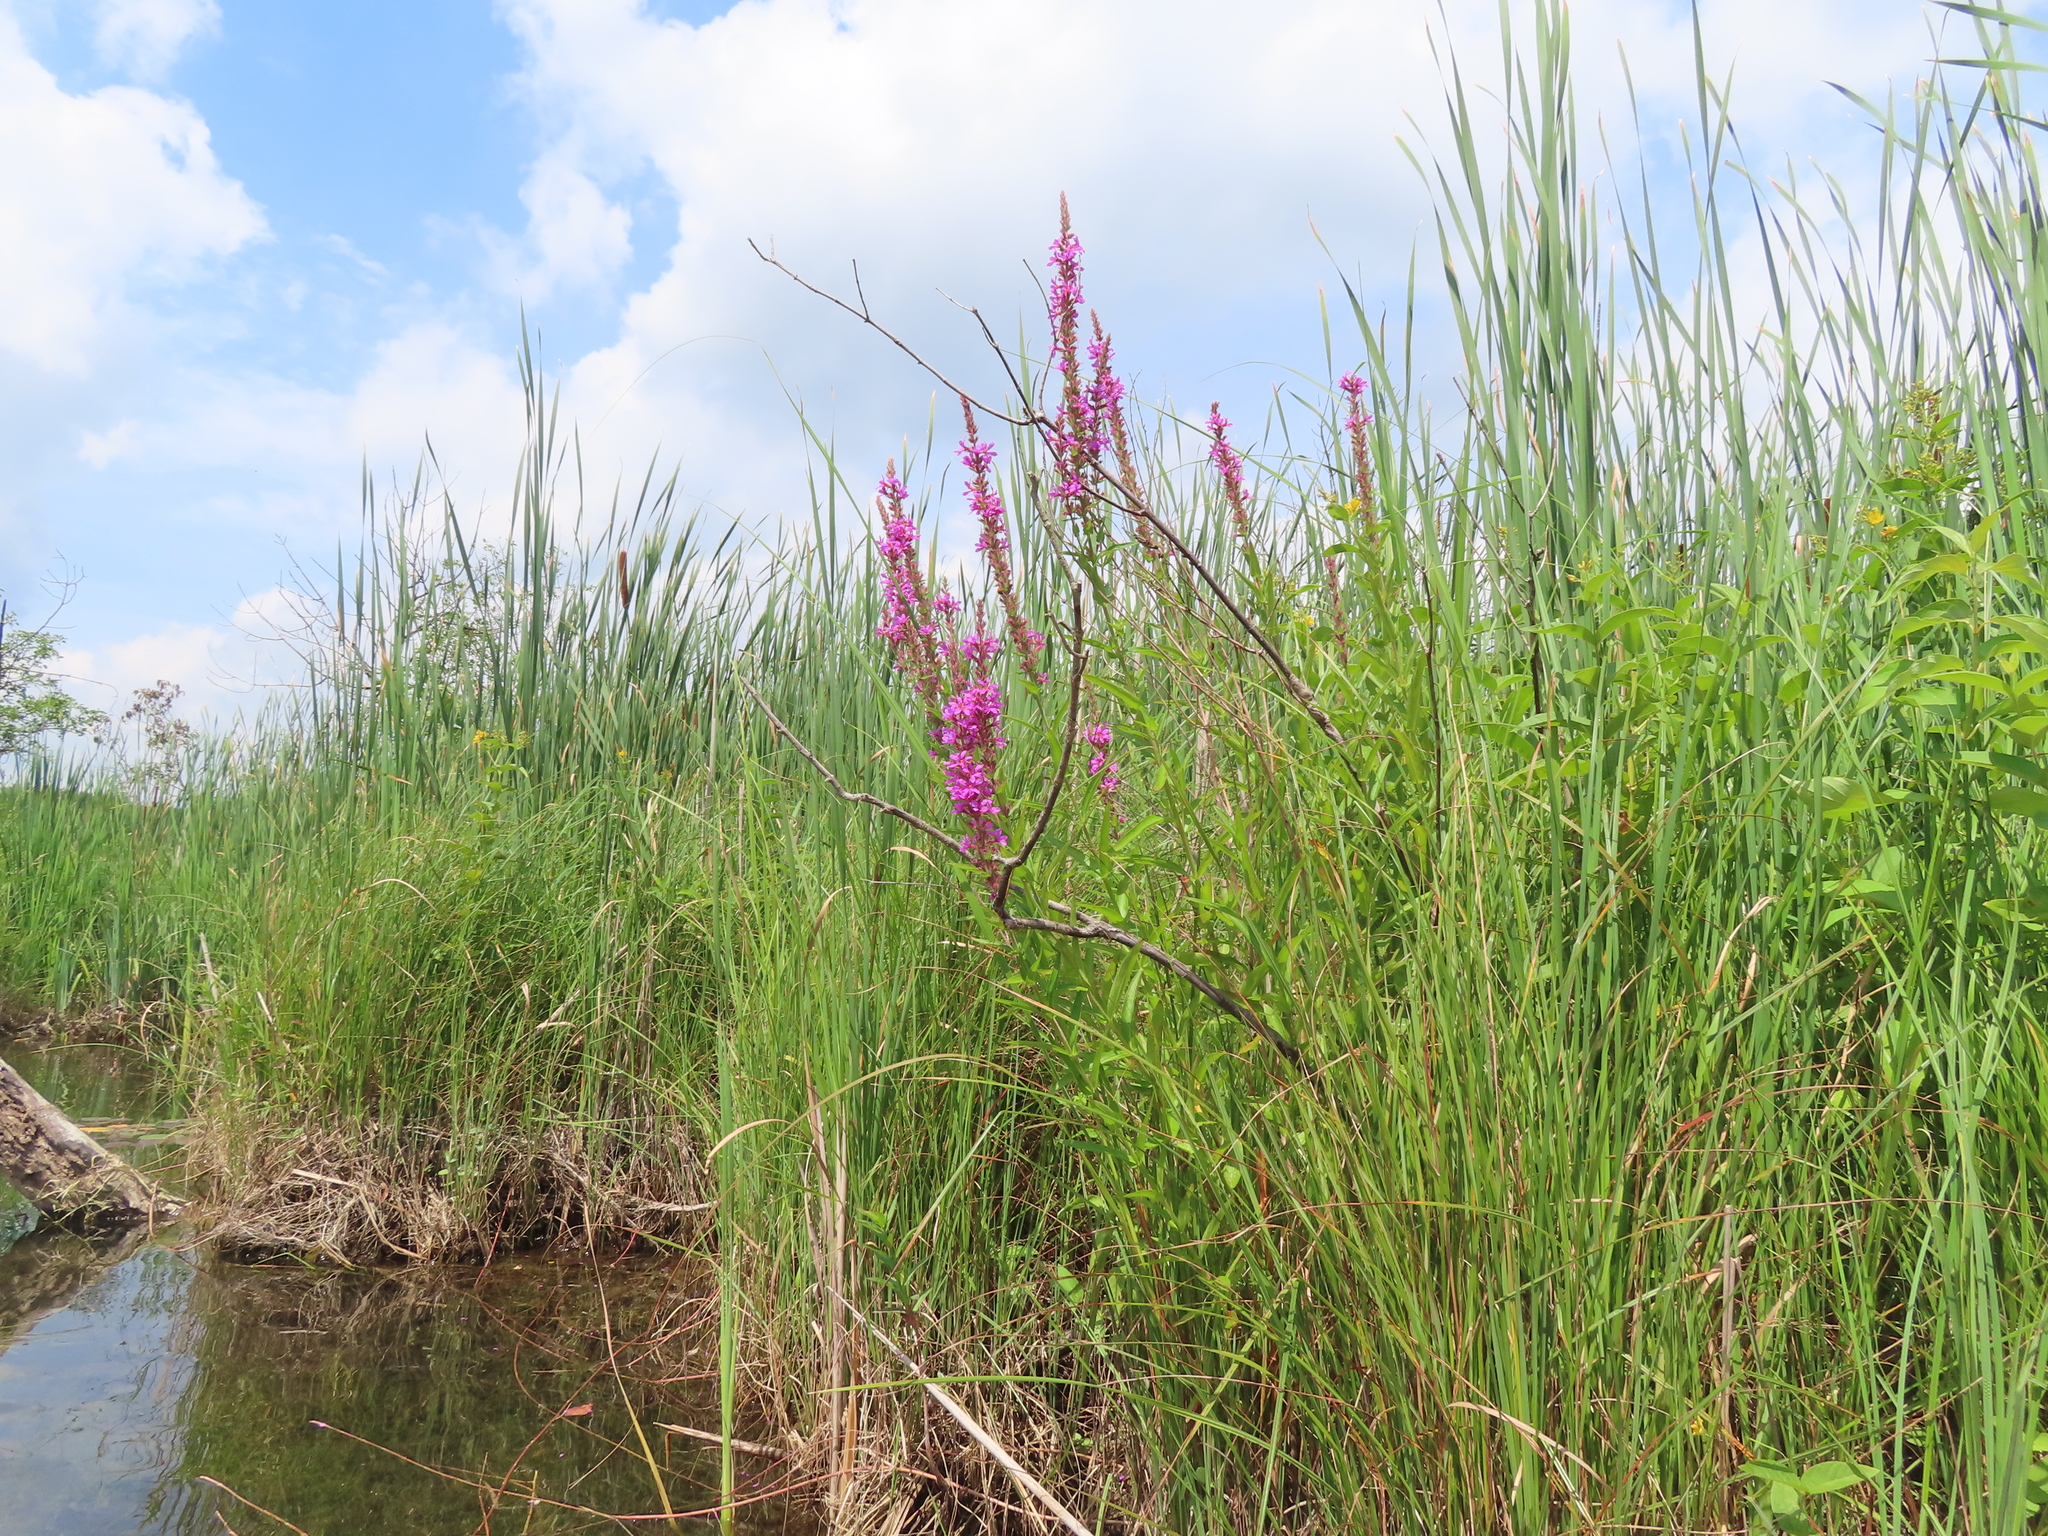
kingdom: Plantae
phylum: Tracheophyta
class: Magnoliopsida
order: Myrtales
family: Lythraceae
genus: Lythrum
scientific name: Lythrum salicaria
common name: Purple loosestrife
